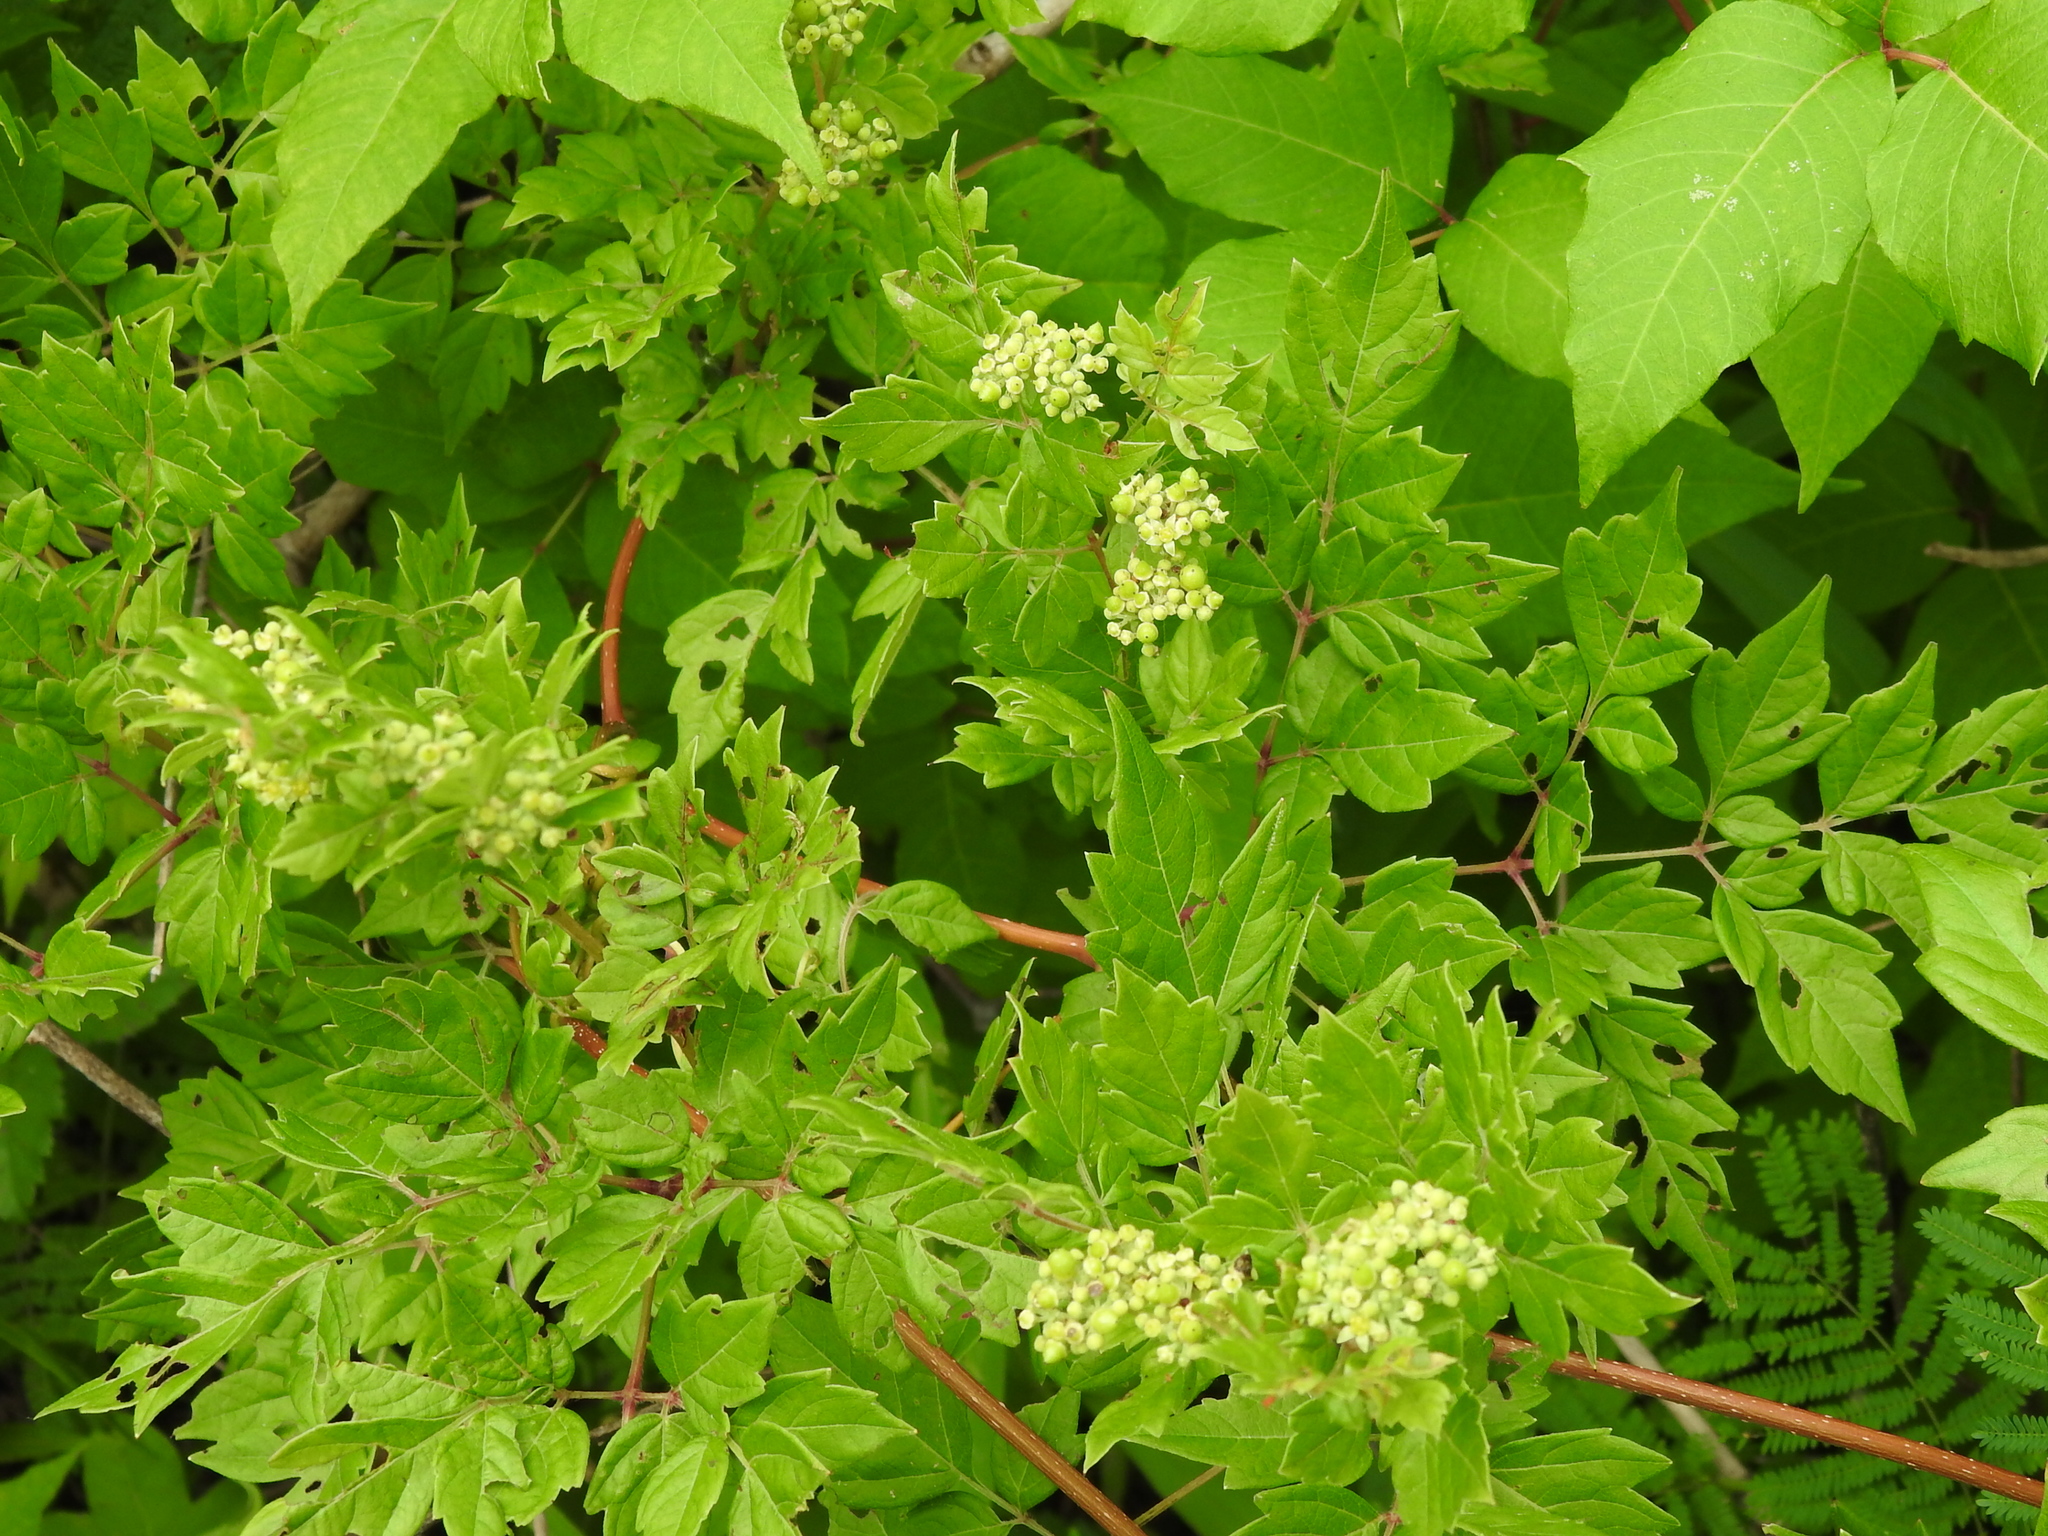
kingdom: Plantae
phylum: Tracheophyta
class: Magnoliopsida
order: Vitales
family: Vitaceae
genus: Nekemias
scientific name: Nekemias arborea
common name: Peppervine
